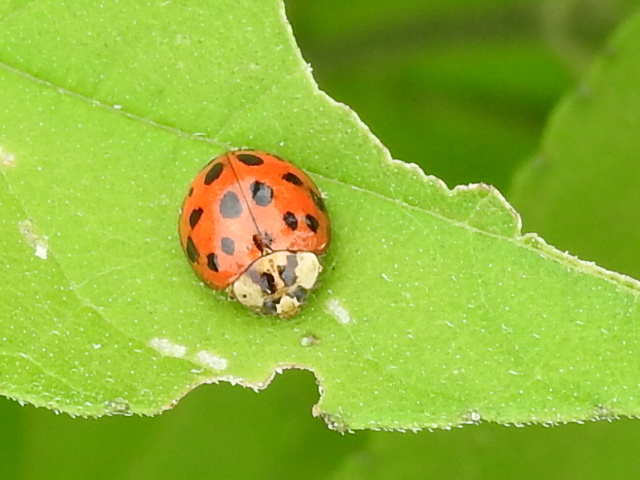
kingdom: Animalia
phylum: Arthropoda
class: Insecta
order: Coleoptera
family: Coccinellidae
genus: Harmonia
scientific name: Harmonia axyridis
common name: Harlequin ladybird
